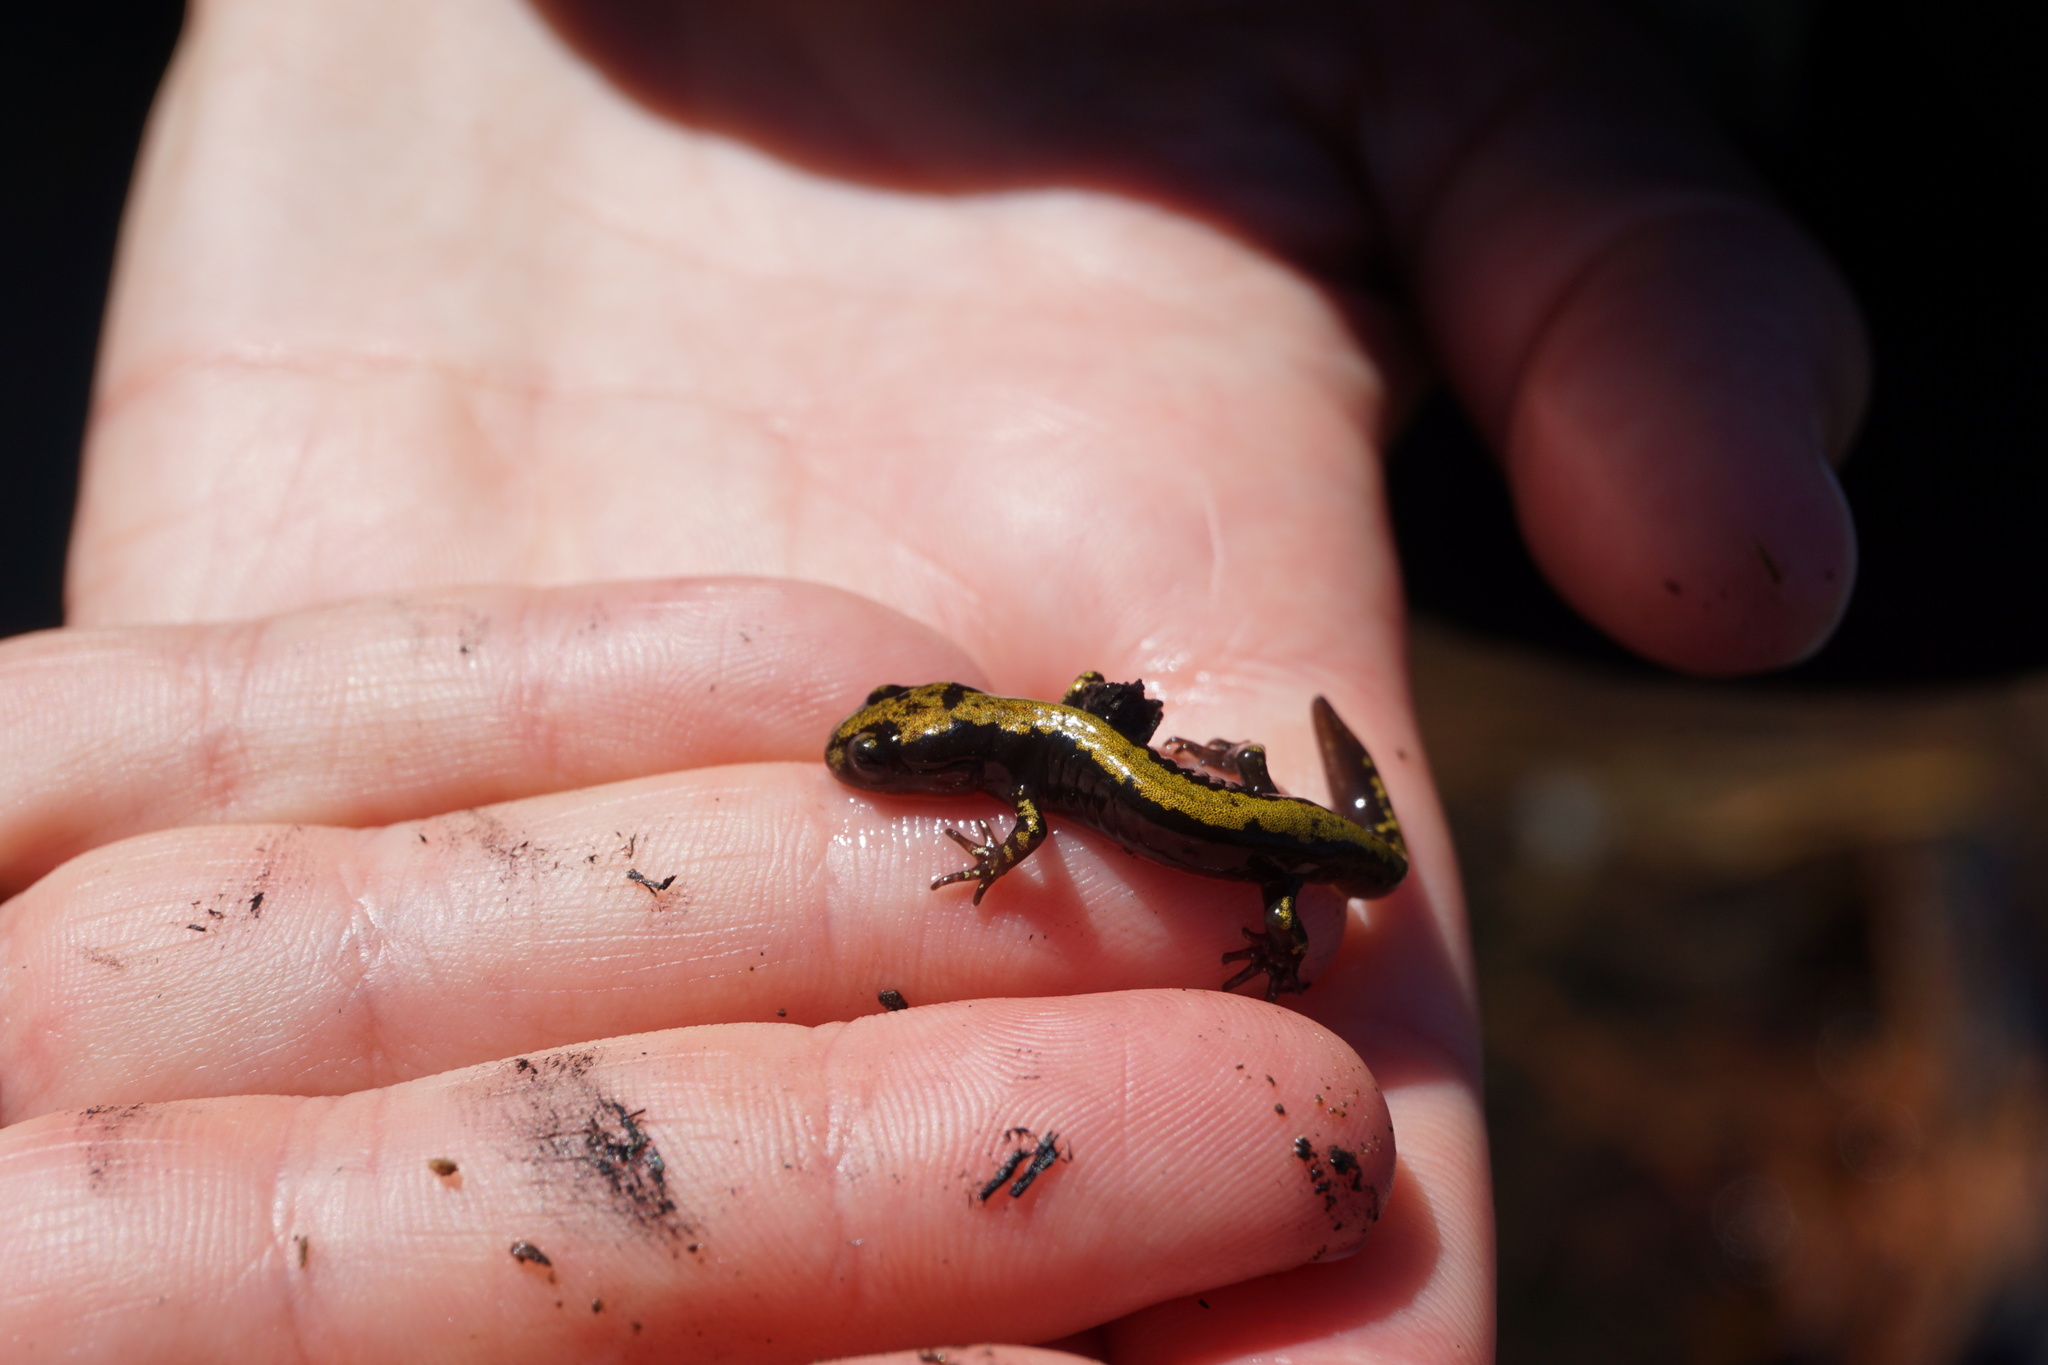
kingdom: Animalia
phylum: Chordata
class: Amphibia
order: Caudata
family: Ambystomatidae
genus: Ambystoma
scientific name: Ambystoma macrodactylum
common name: Long-toed salamander
